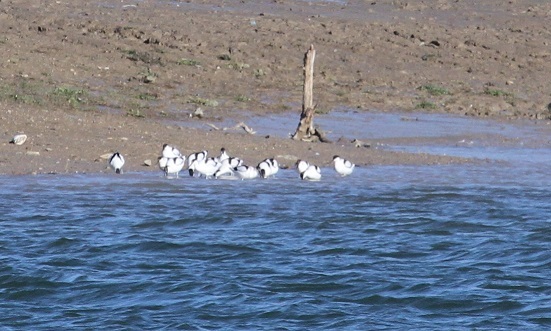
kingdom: Animalia
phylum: Chordata
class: Aves
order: Charadriiformes
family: Recurvirostridae
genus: Recurvirostra
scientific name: Recurvirostra avosetta
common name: Pied avocet
